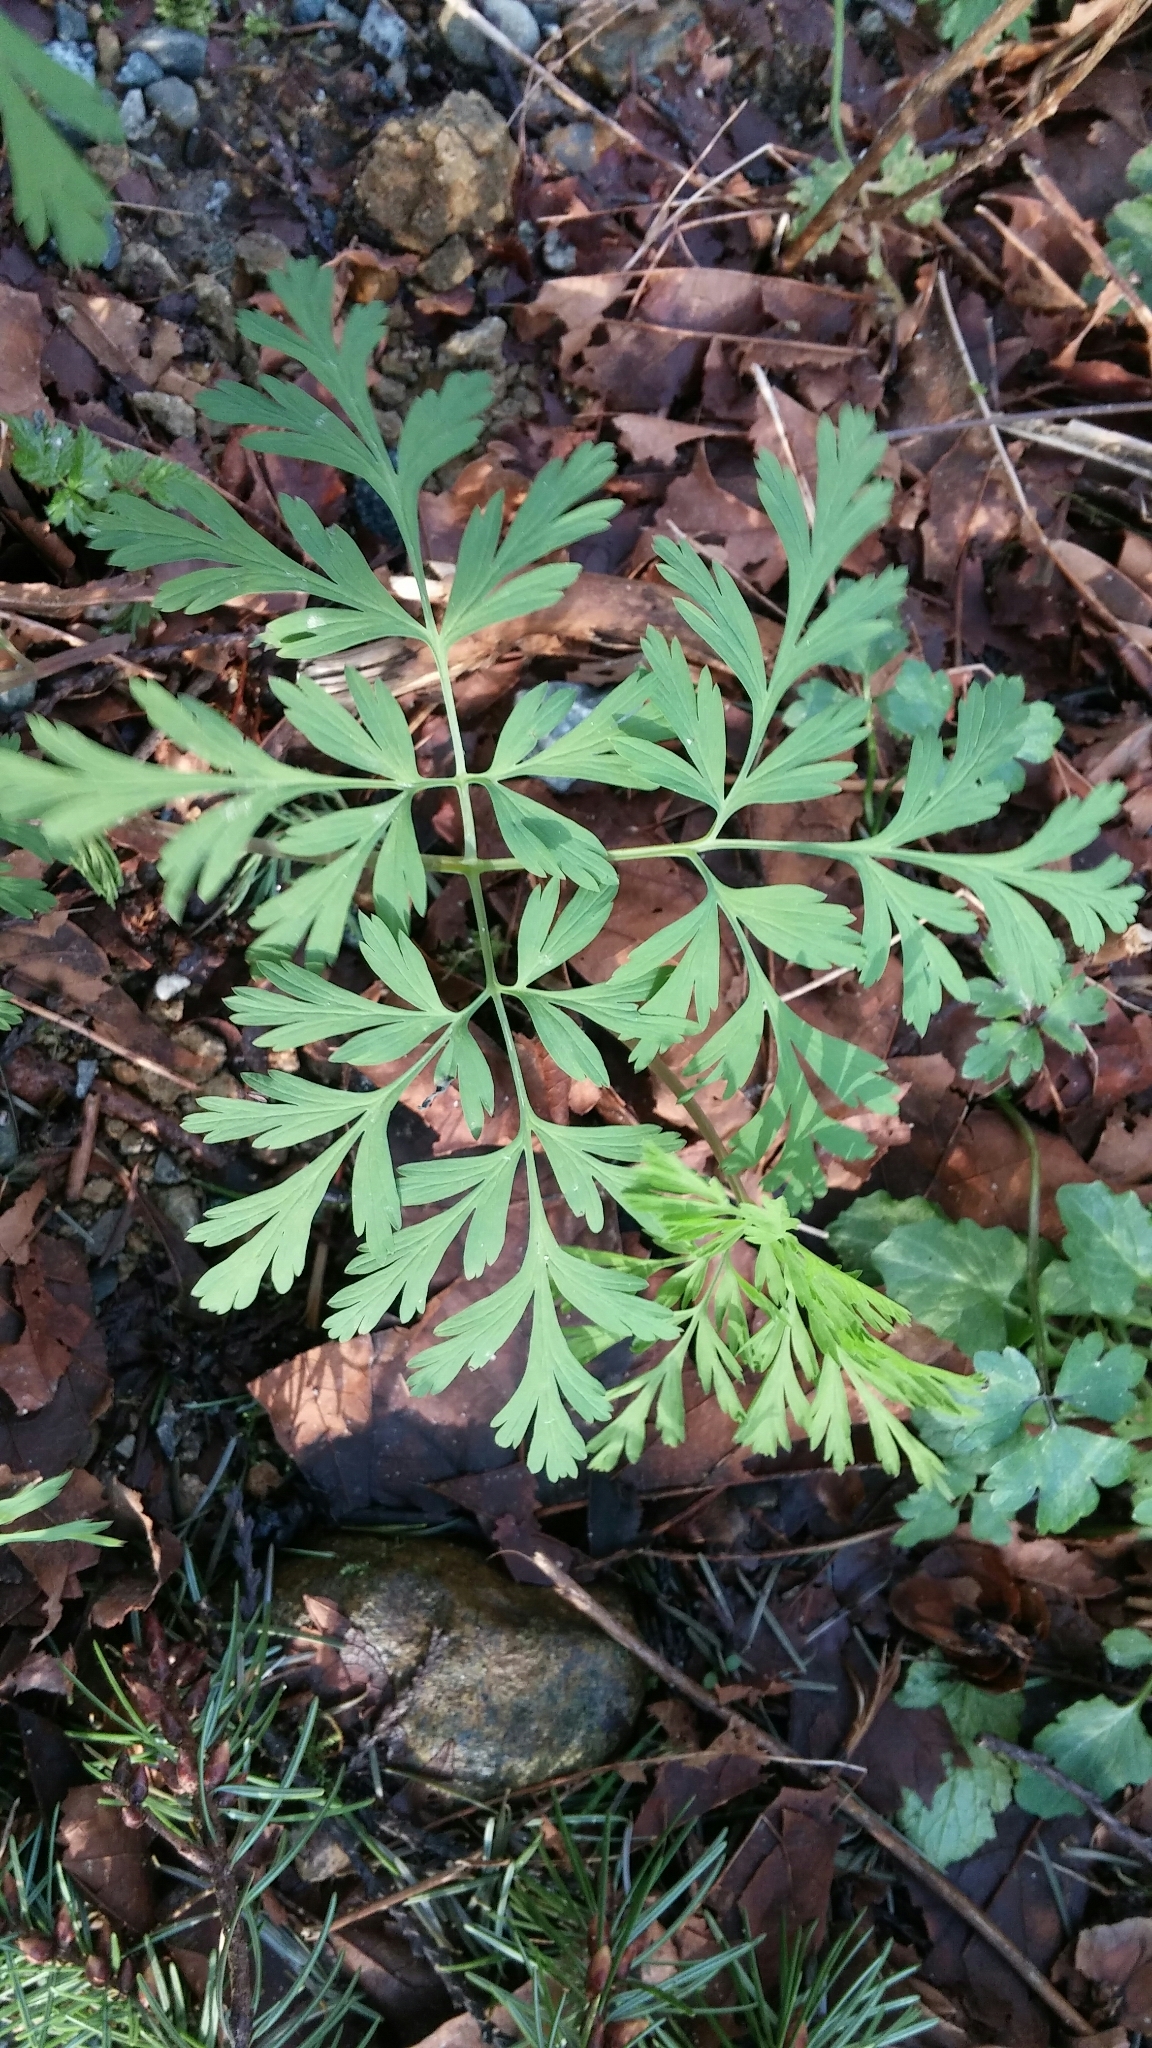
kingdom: Plantae
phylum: Tracheophyta
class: Magnoliopsida
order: Ranunculales
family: Papaveraceae
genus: Dicentra
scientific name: Dicentra formosa
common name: Bleeding-heart
